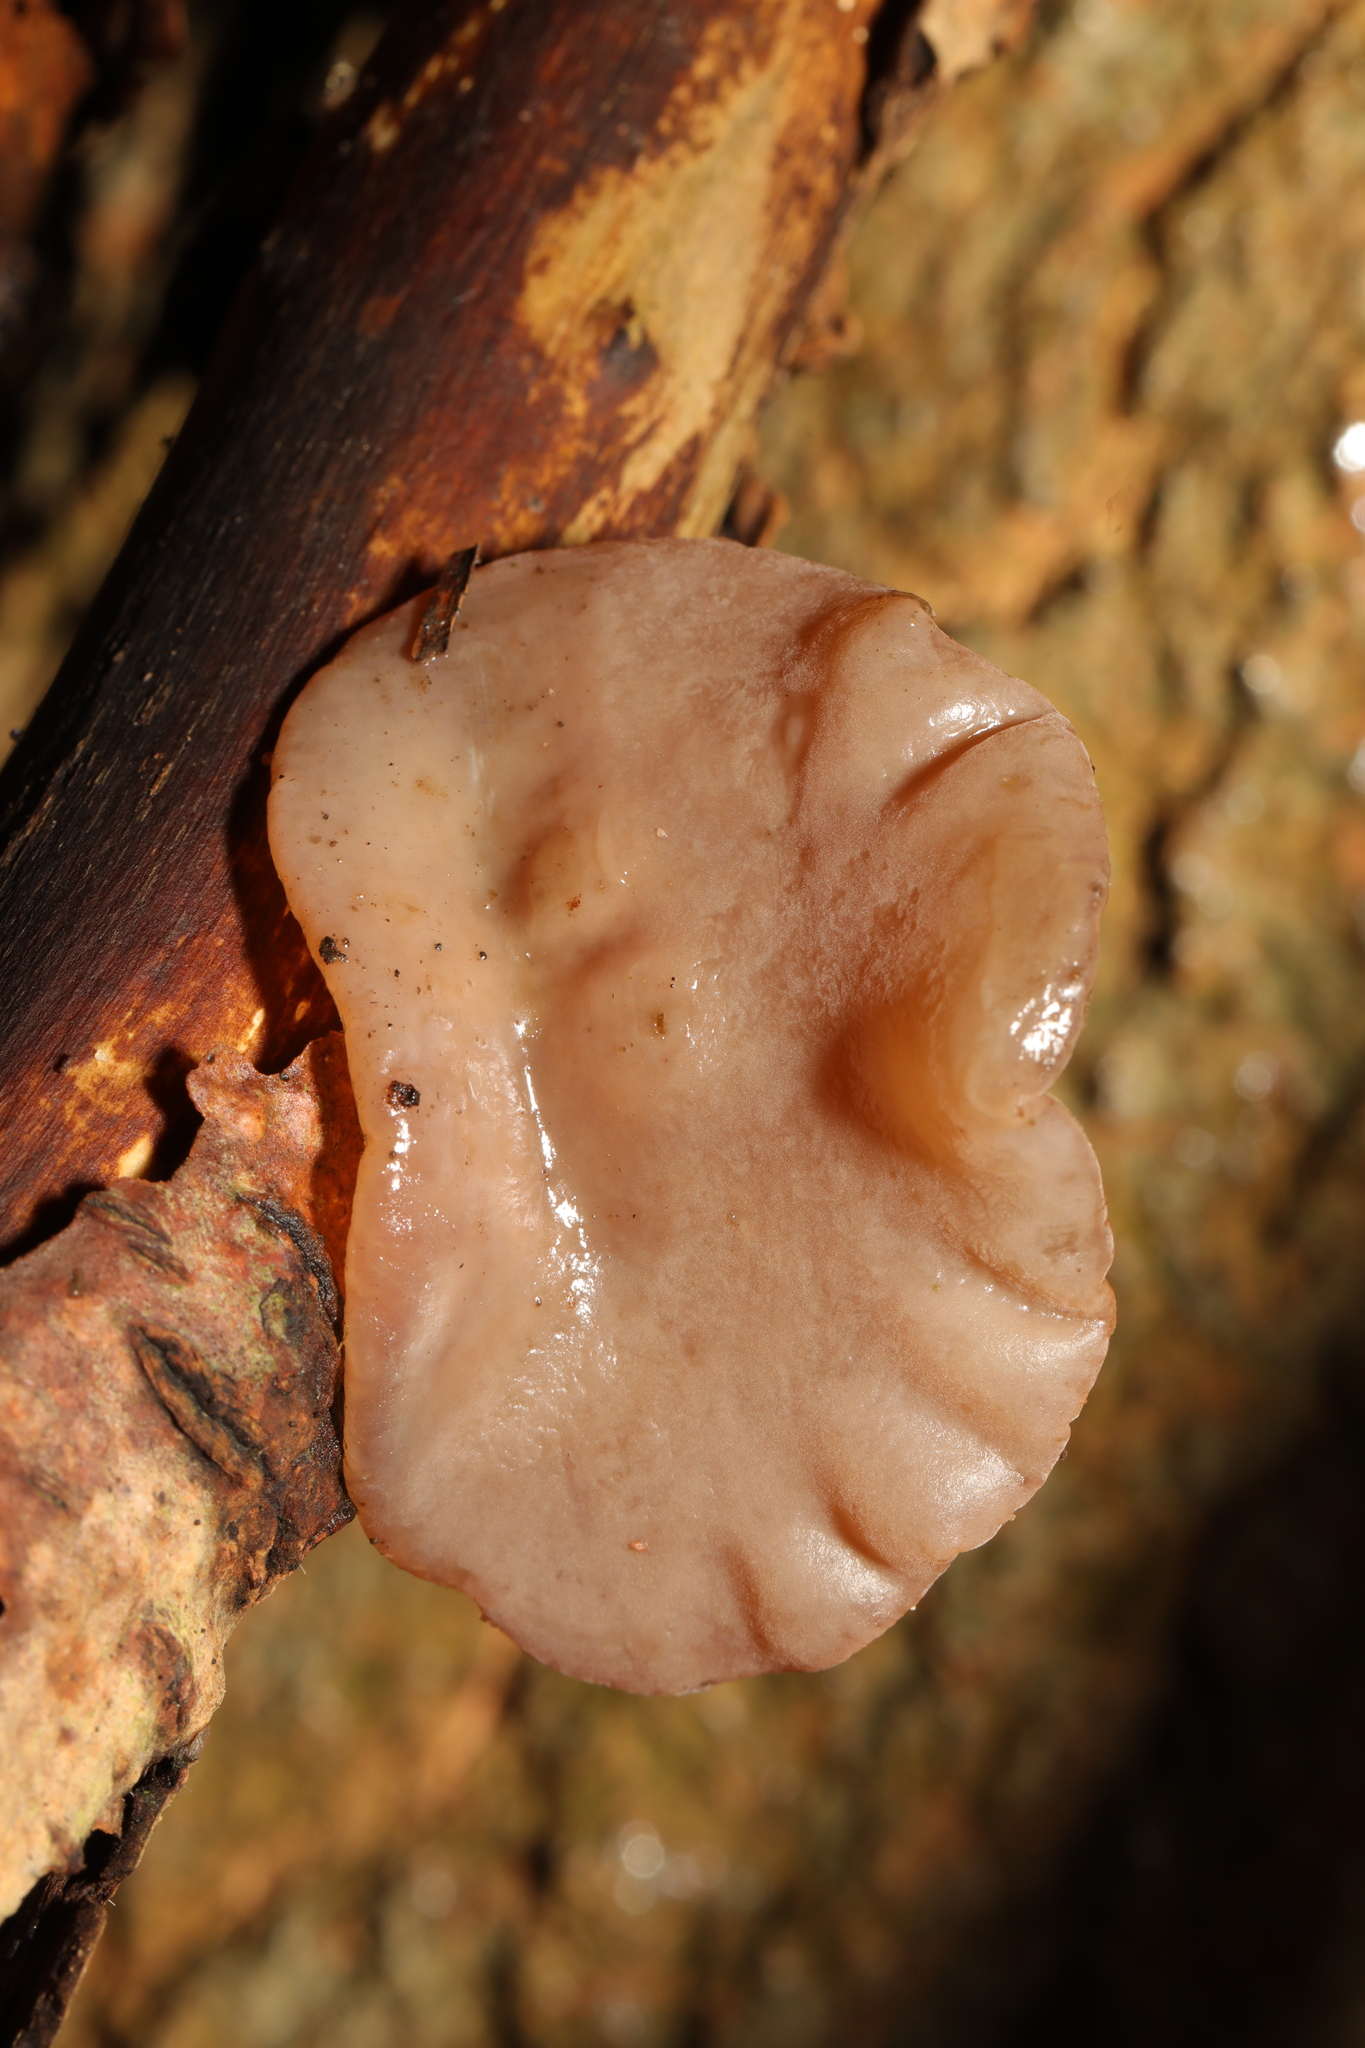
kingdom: Fungi
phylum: Basidiomycota
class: Agaricomycetes
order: Auriculariales
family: Auriculariaceae
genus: Auricularia
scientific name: Auricularia auricula-judae
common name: Jelly ear
